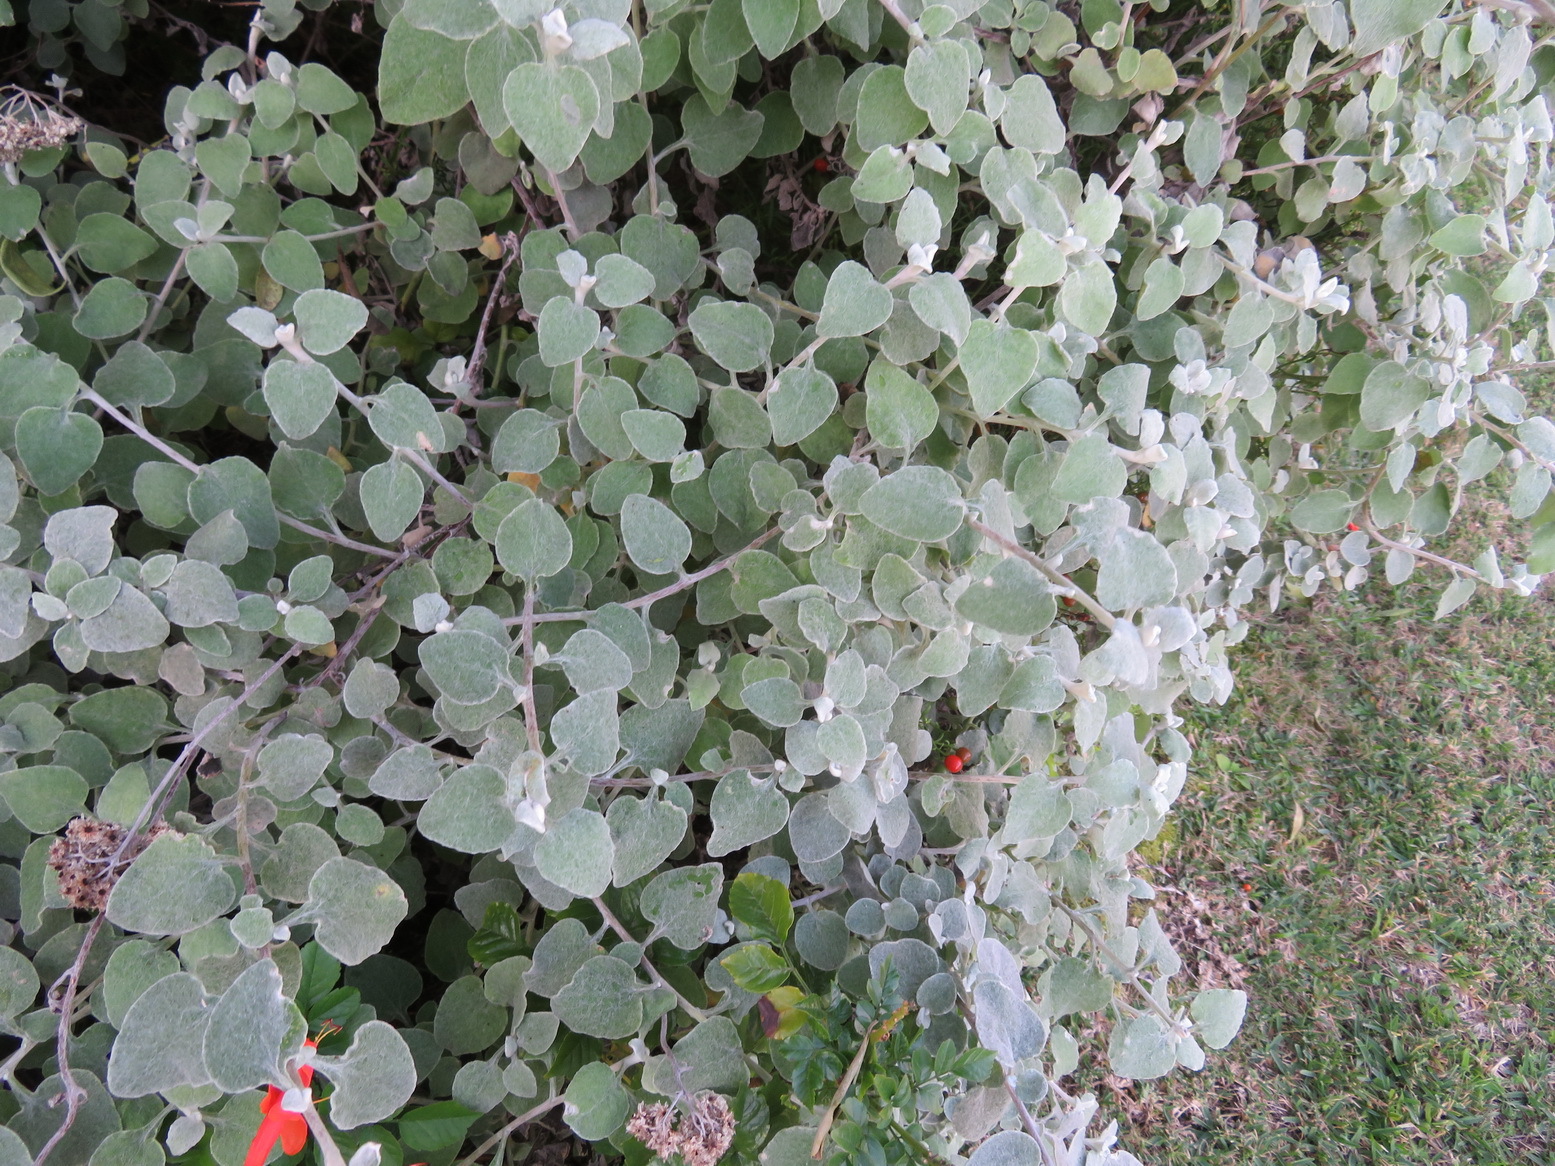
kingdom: Plantae
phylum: Tracheophyta
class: Magnoliopsida
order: Asterales
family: Asteraceae
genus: Helichrysum
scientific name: Helichrysum petiolare
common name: Licorice-plant
